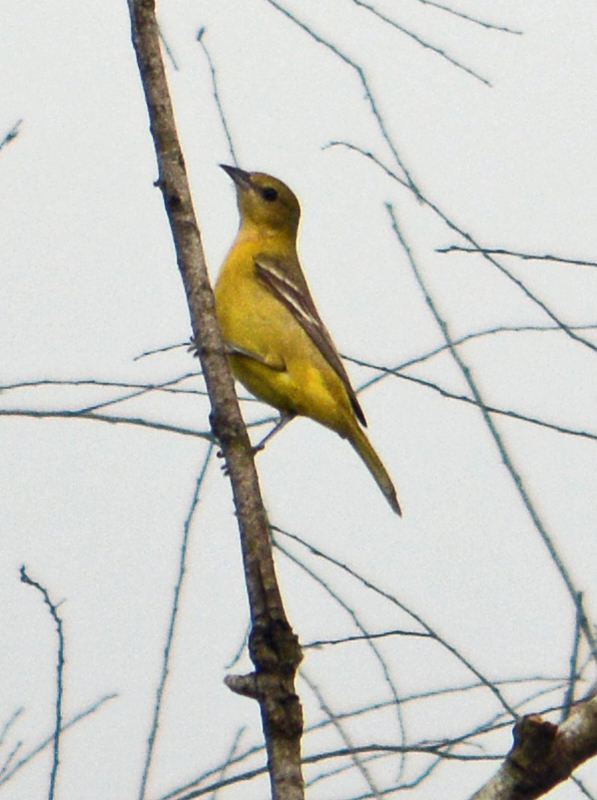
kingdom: Animalia
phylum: Chordata
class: Aves
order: Passeriformes
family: Icteridae
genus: Icterus
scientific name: Icterus spurius
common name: Orchard oriole
